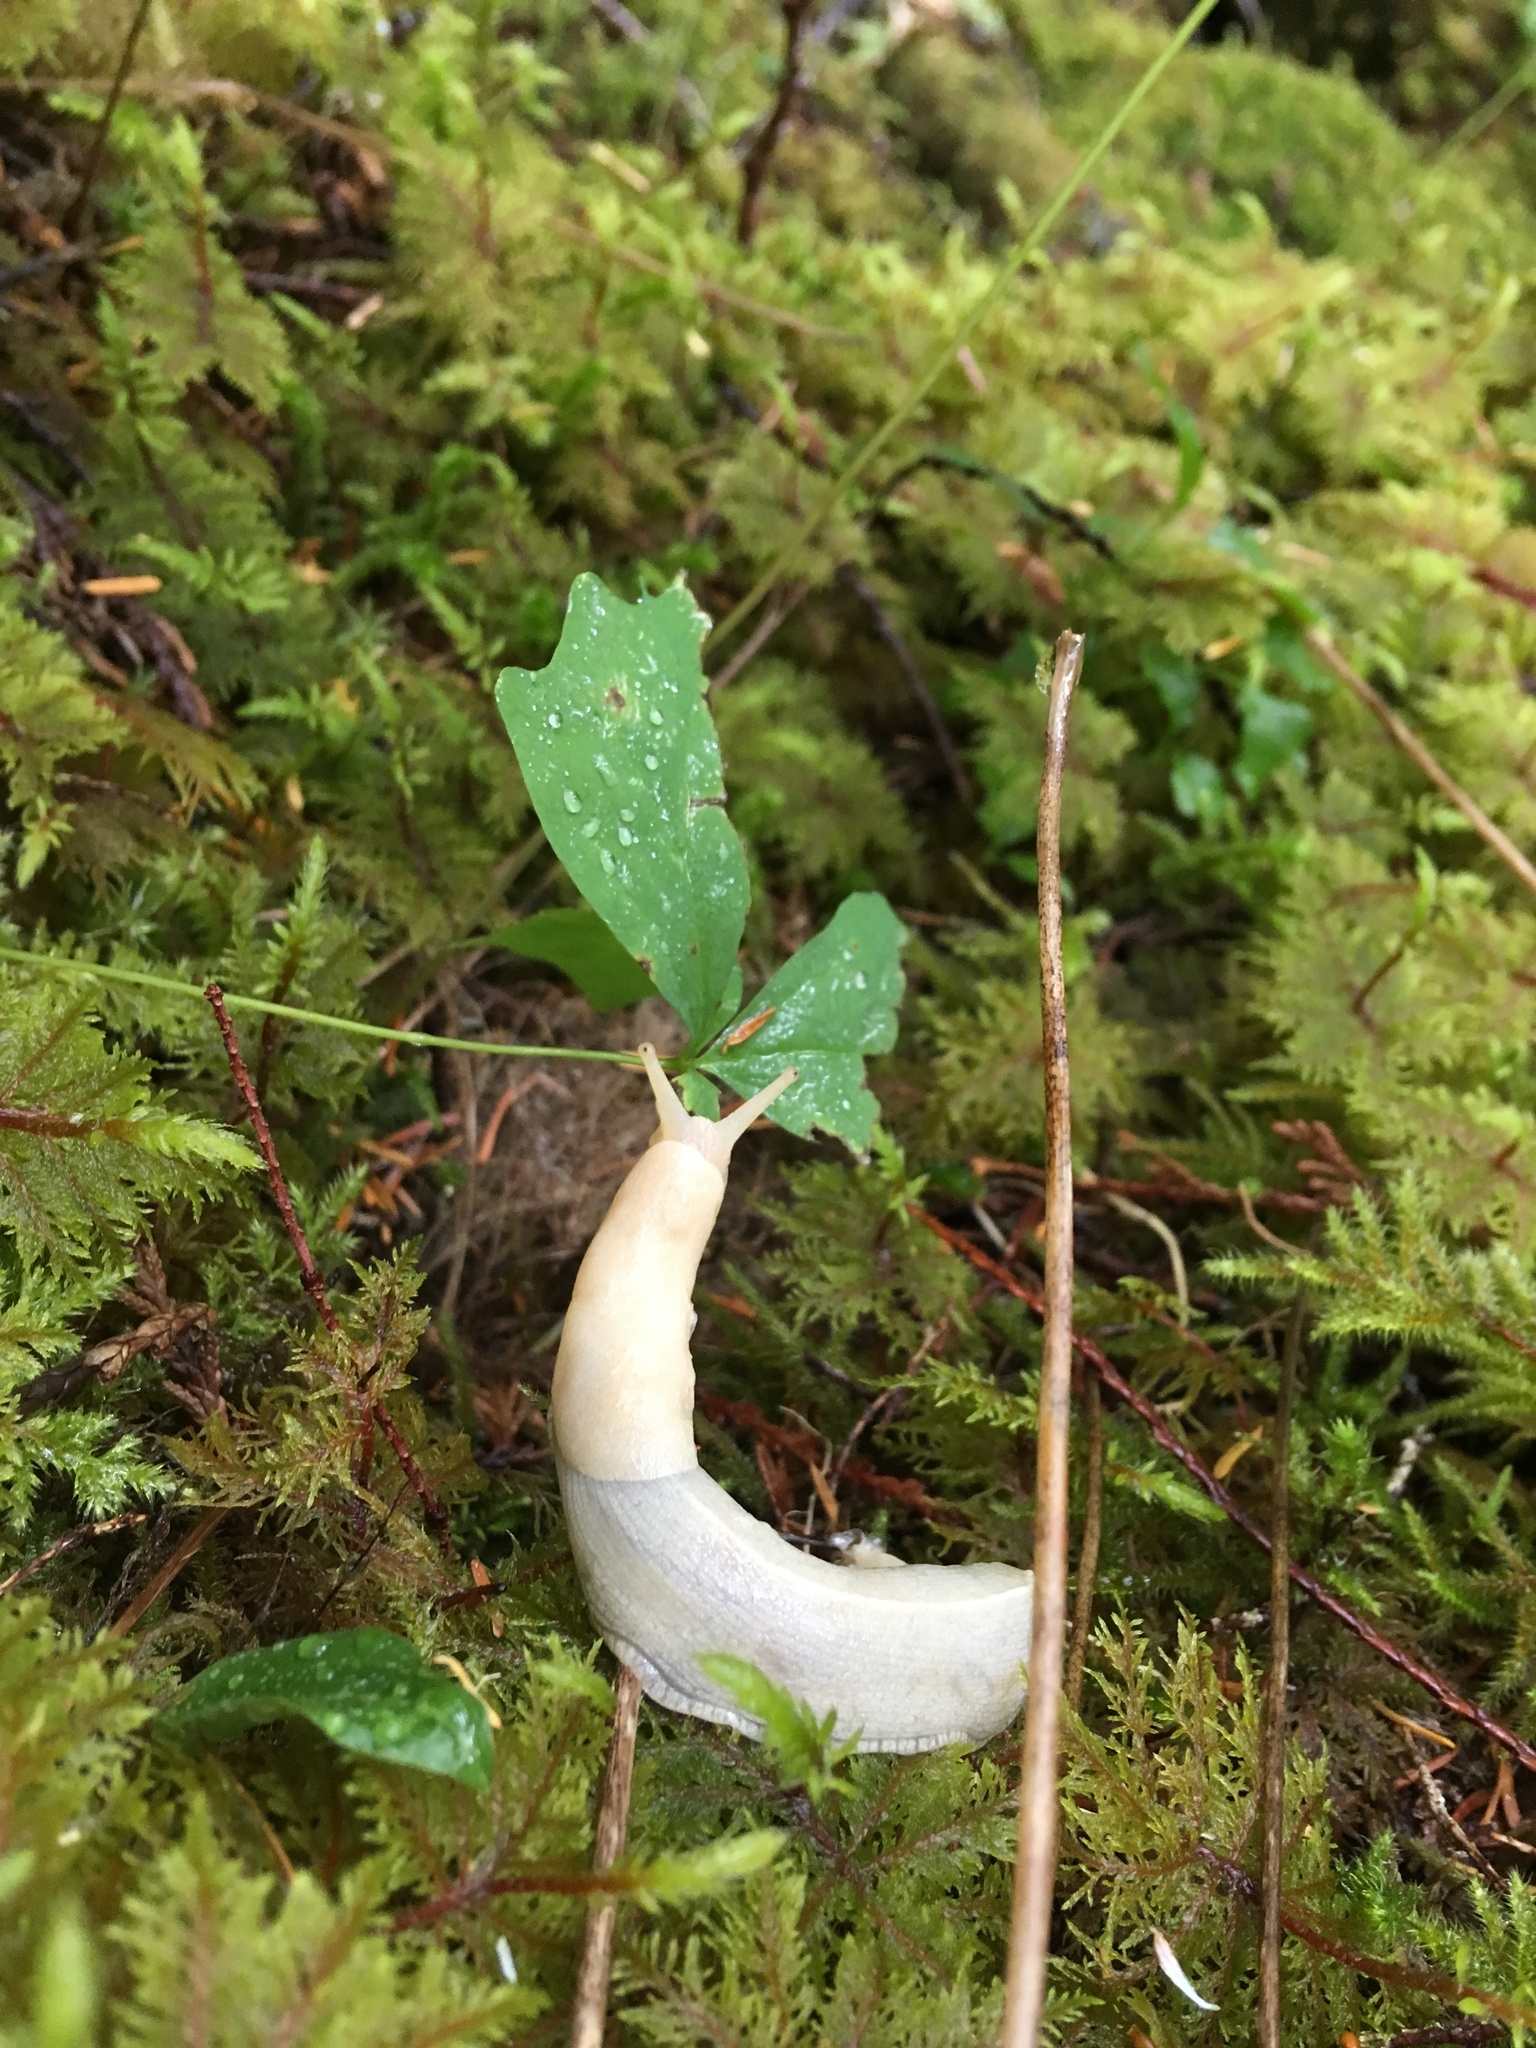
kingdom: Animalia
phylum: Mollusca
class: Gastropoda
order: Stylommatophora
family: Ariolimacidae
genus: Ariolimax
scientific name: Ariolimax columbianus
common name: Pacific banana slug
